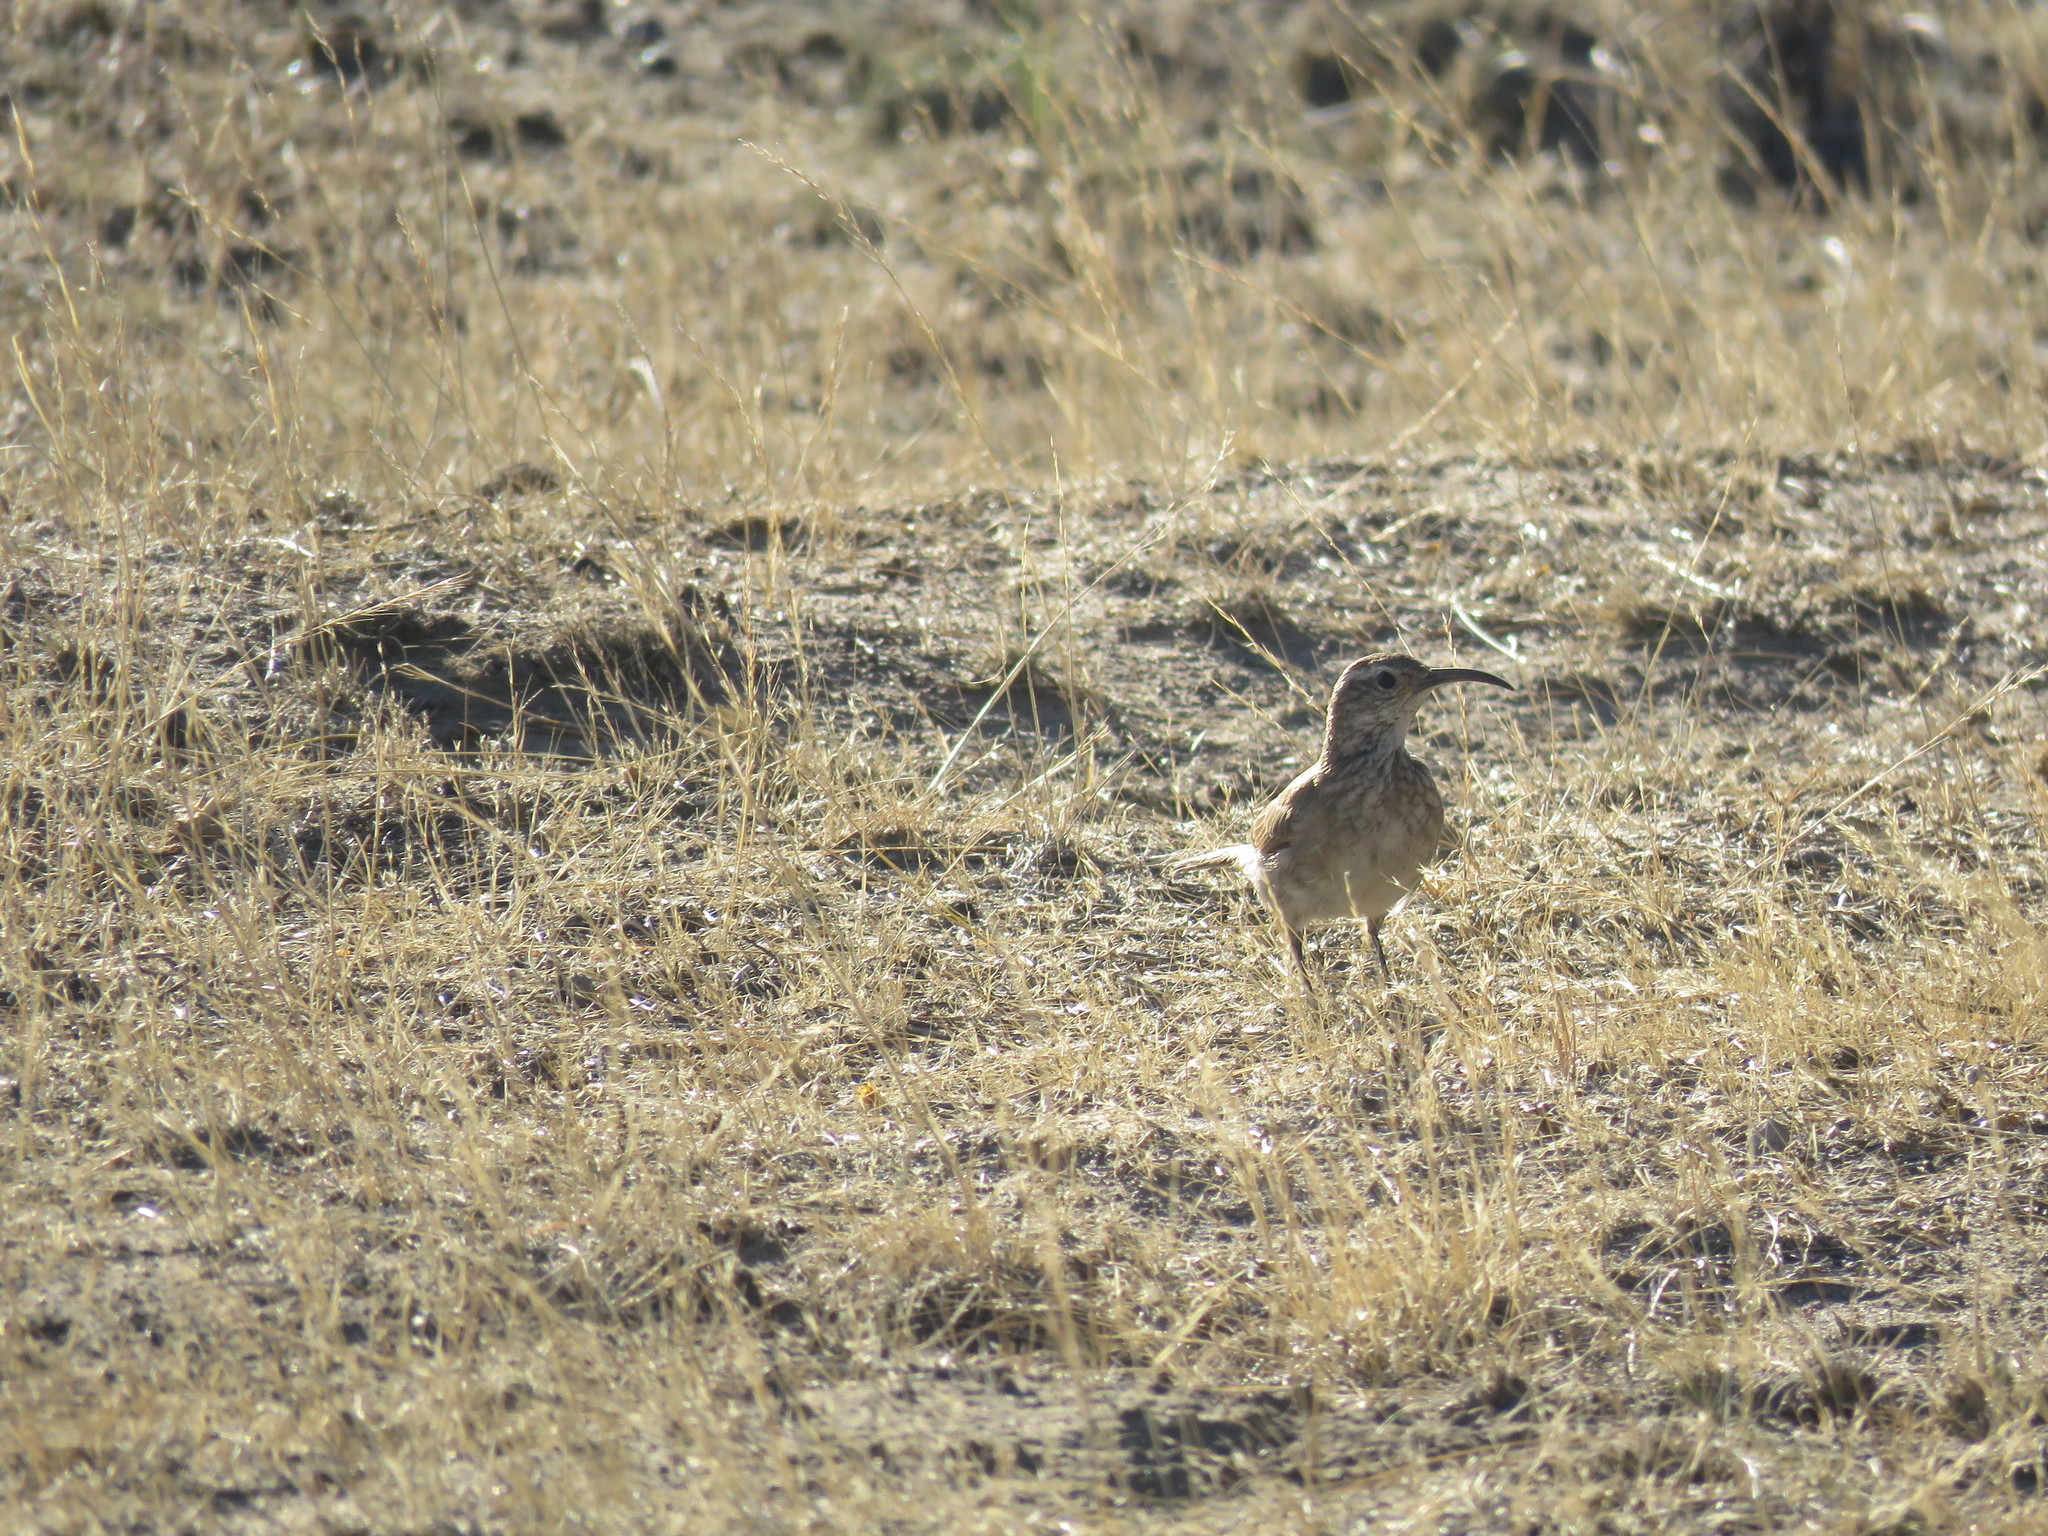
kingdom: Animalia
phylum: Chordata
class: Aves
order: Passeriformes
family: Furnariidae
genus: Upucerthia
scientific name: Upucerthia dumetaria
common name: Scale-throated earthcreeper
